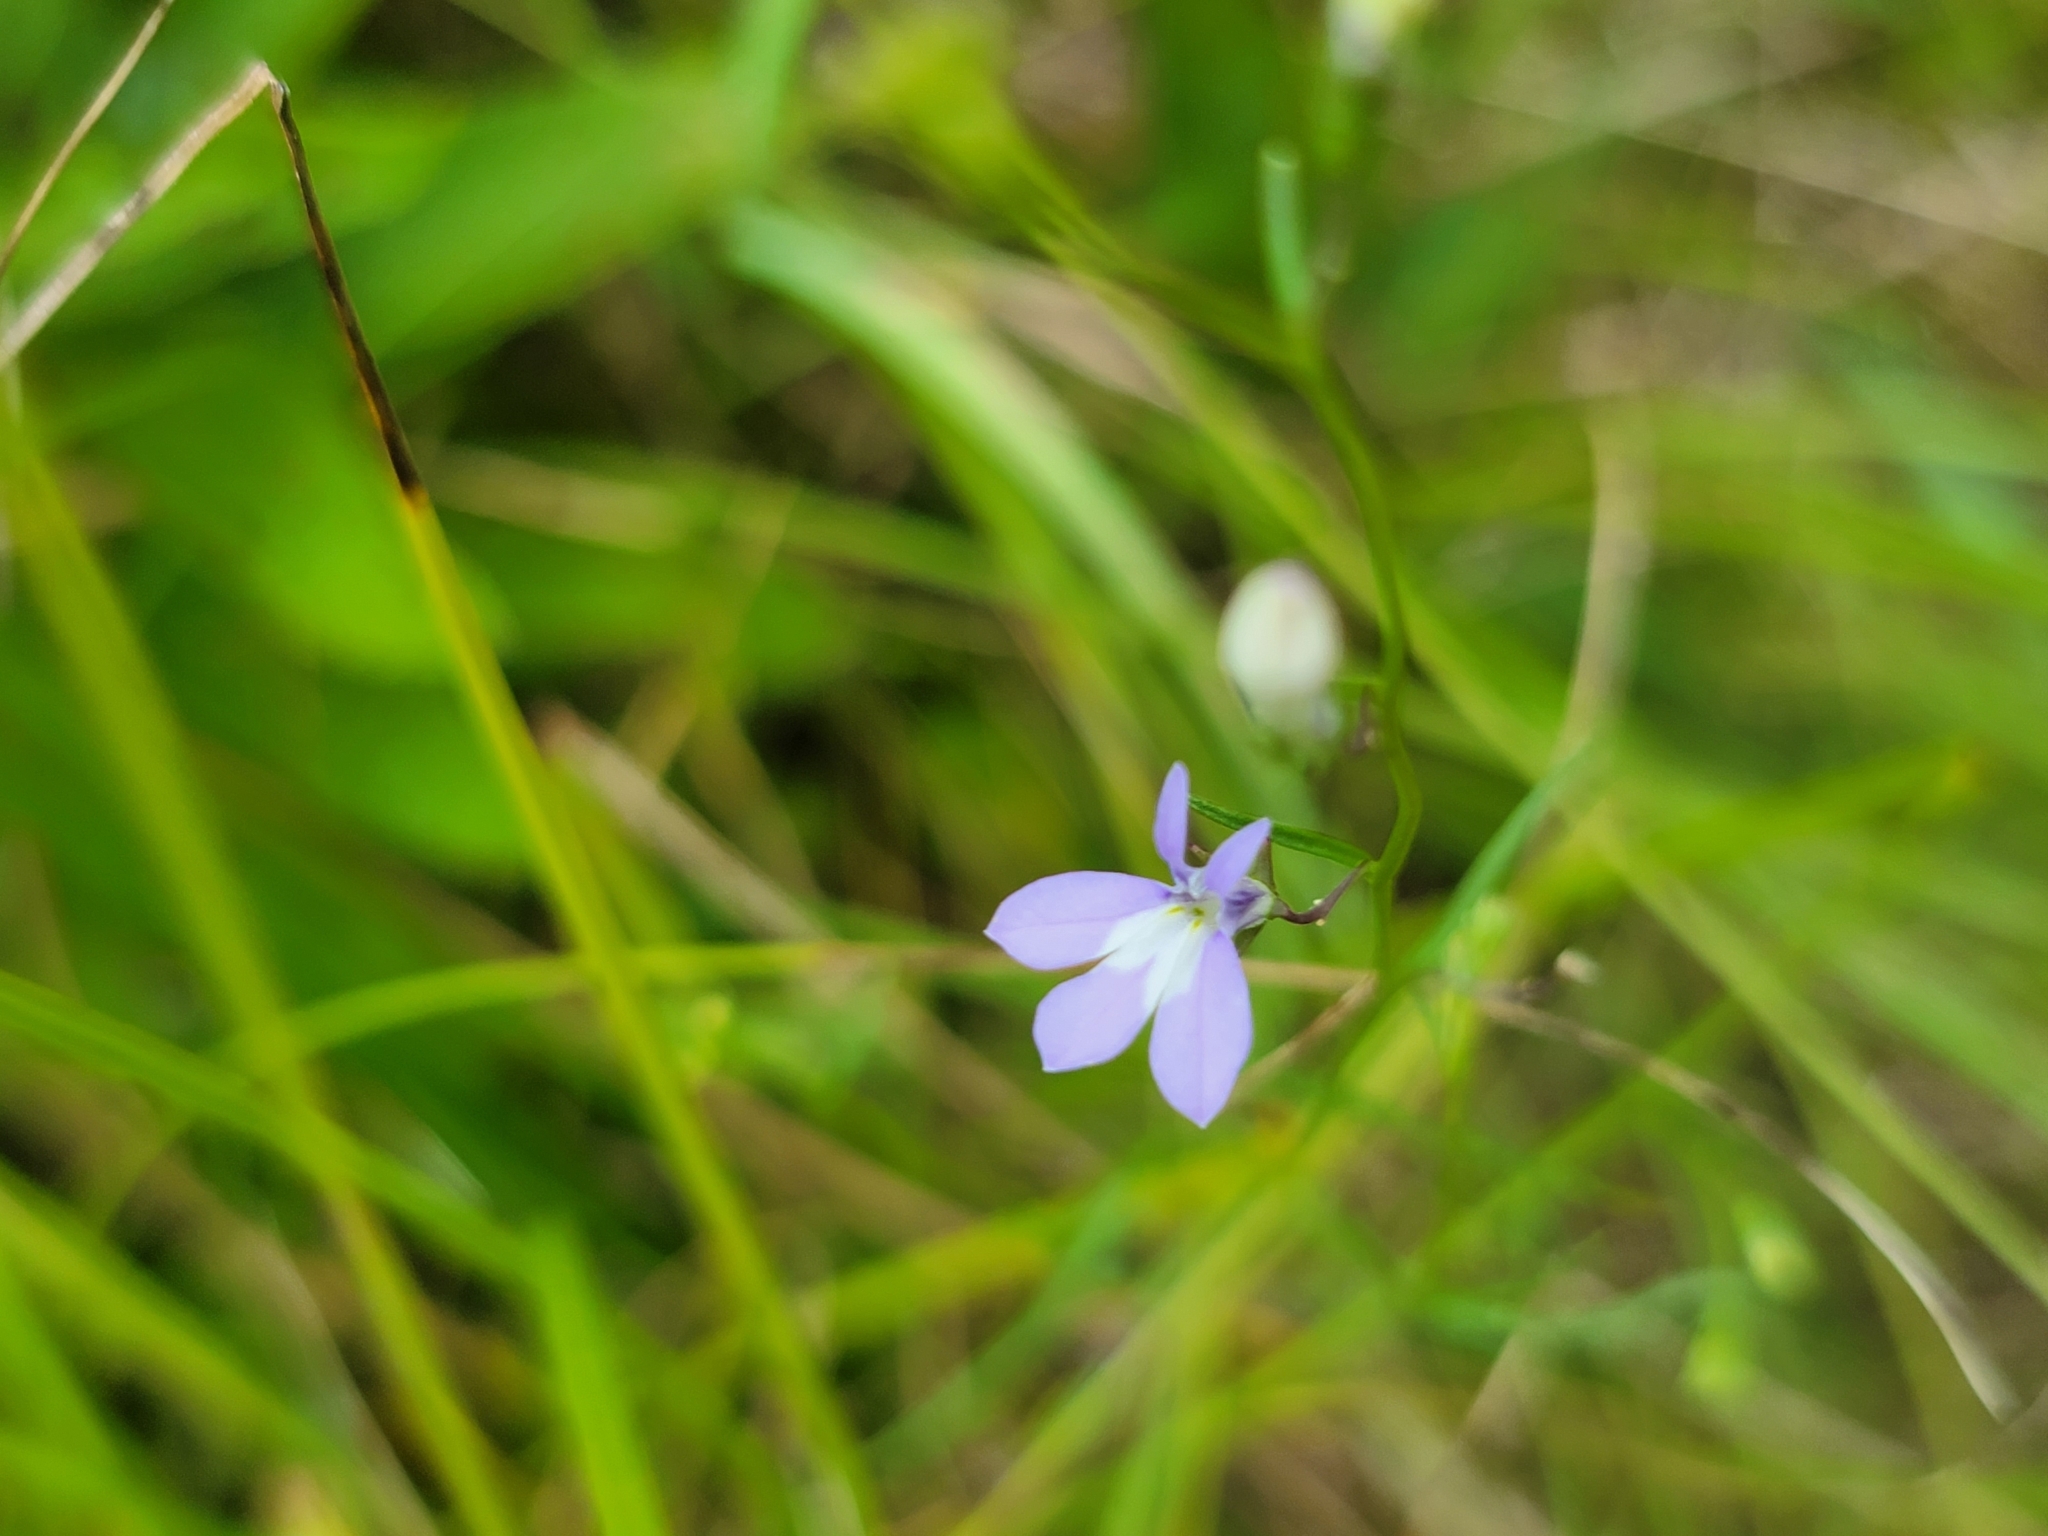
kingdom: Plantae
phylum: Tracheophyta
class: Magnoliopsida
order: Asterales
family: Campanulaceae
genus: Lobelia
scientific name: Lobelia kalmii
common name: Kalm's lobelia
